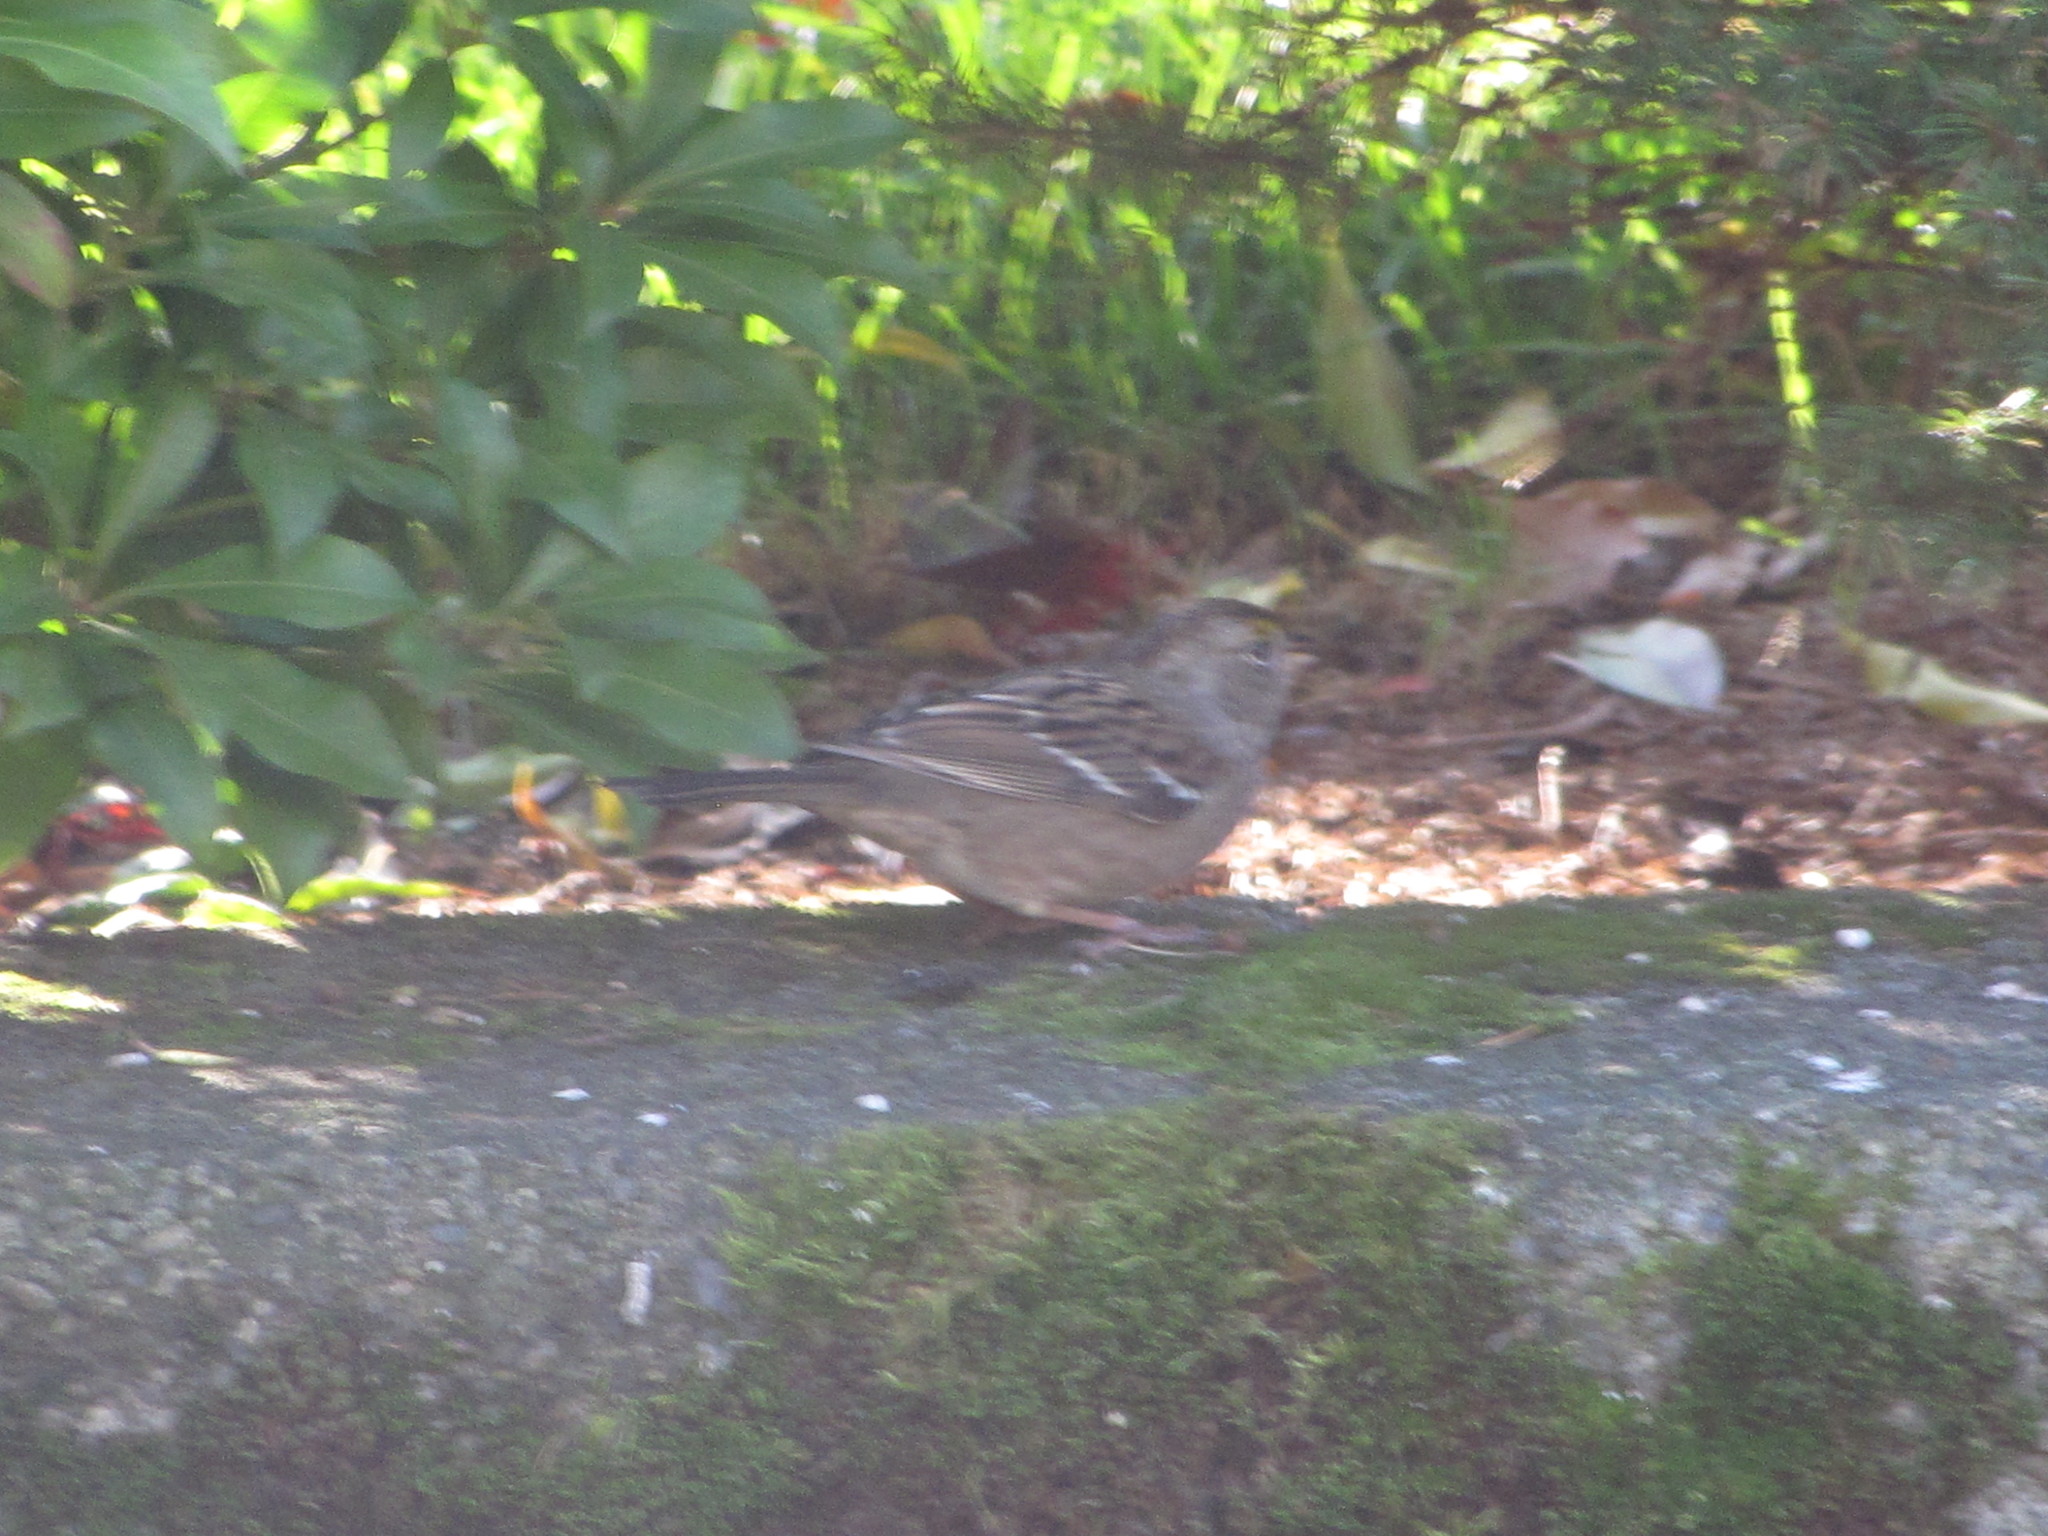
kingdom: Animalia
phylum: Chordata
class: Aves
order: Passeriformes
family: Passerellidae
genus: Zonotrichia
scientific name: Zonotrichia atricapilla
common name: Golden-crowned sparrow
